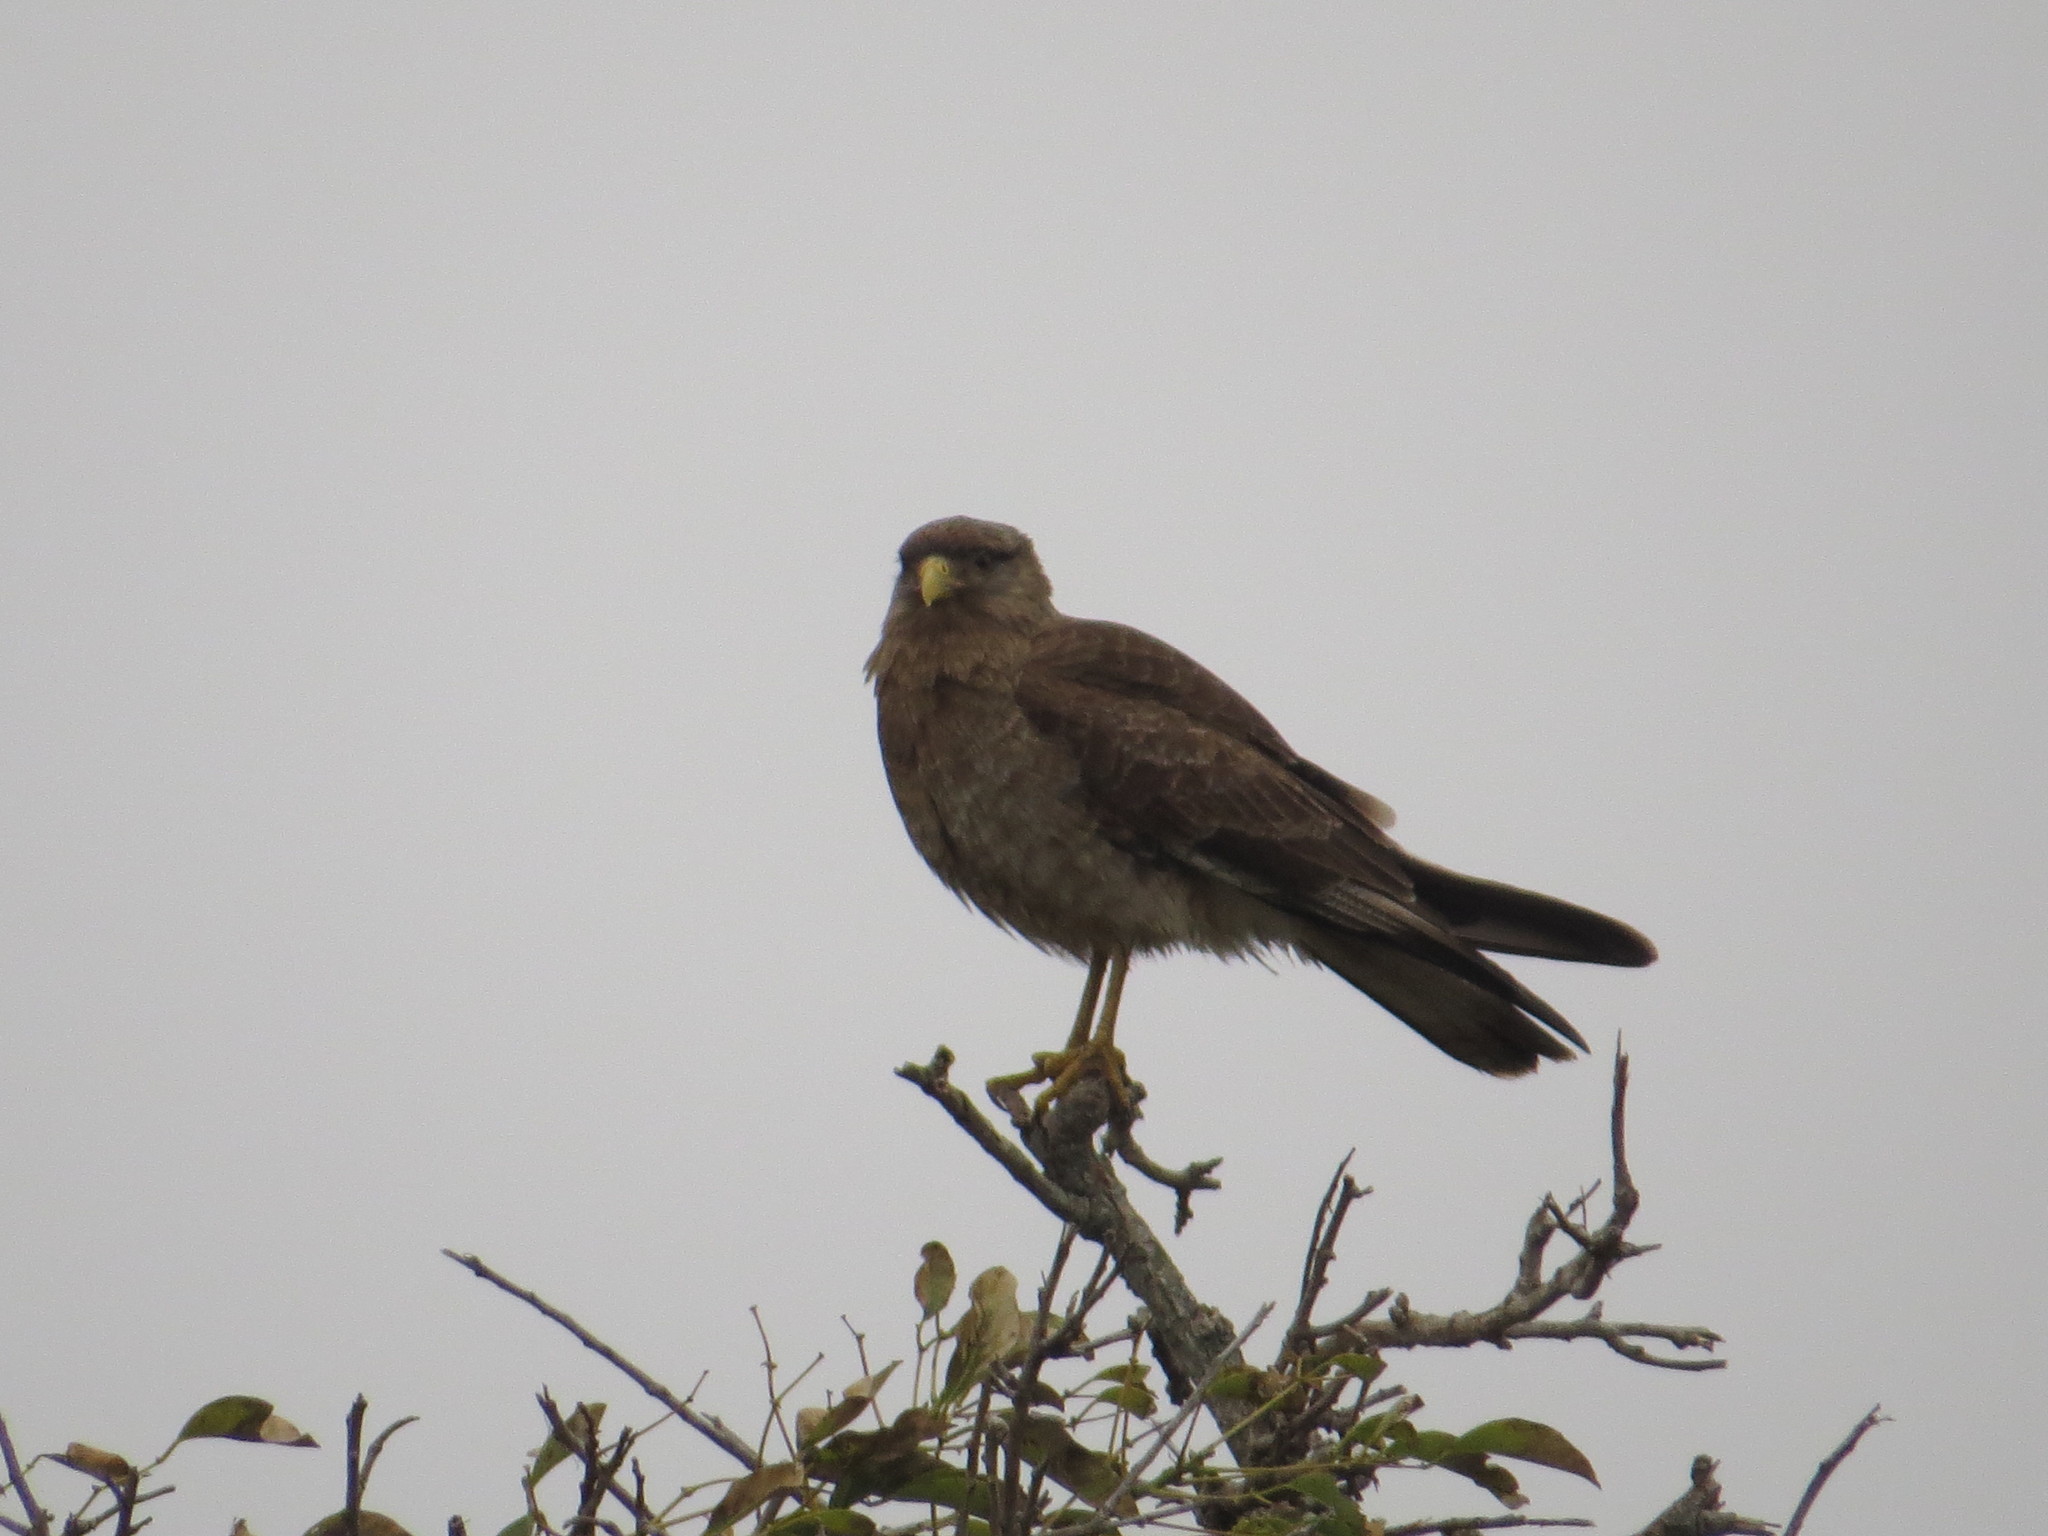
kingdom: Animalia
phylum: Chordata
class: Aves
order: Falconiformes
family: Falconidae
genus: Daptrius
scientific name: Daptrius
